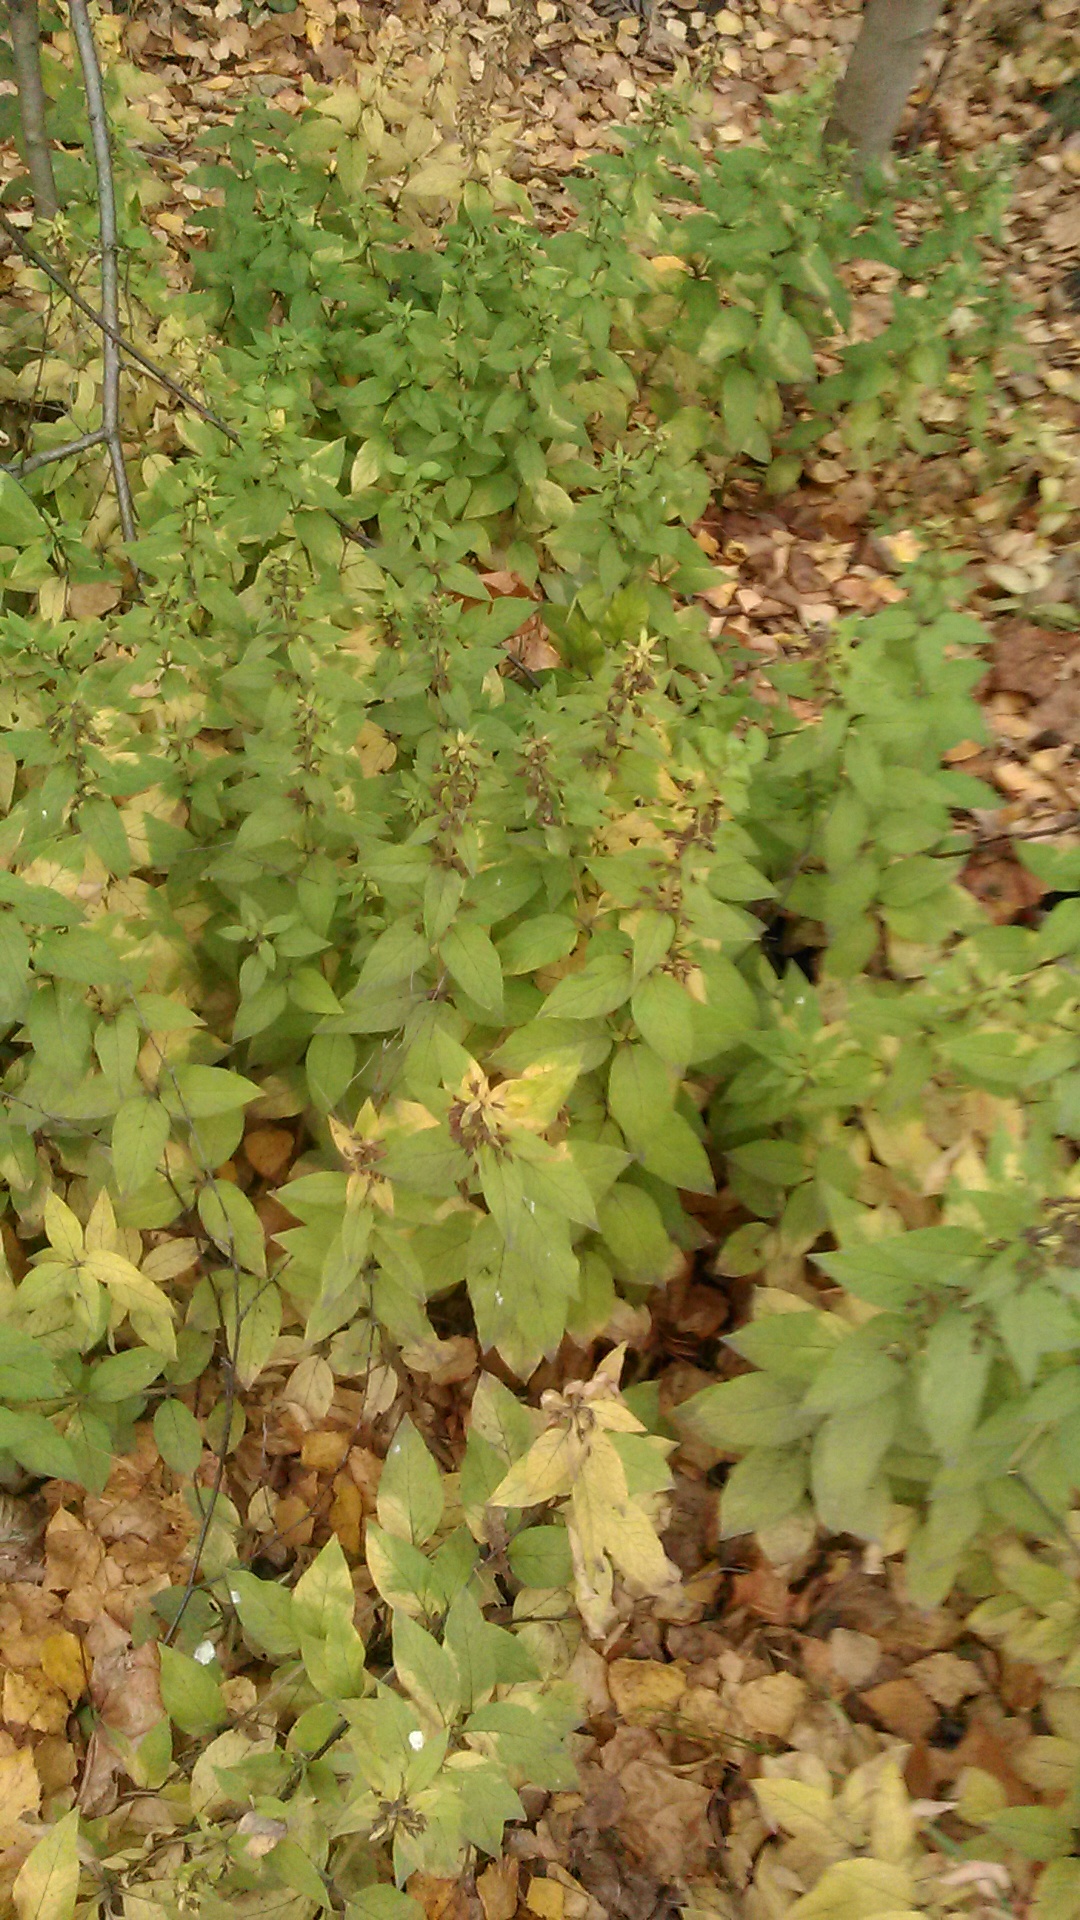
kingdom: Plantae
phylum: Tracheophyta
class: Magnoliopsida
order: Ericales
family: Primulaceae
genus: Lysimachia
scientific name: Lysimachia punctata
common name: Dotted loosestrife
